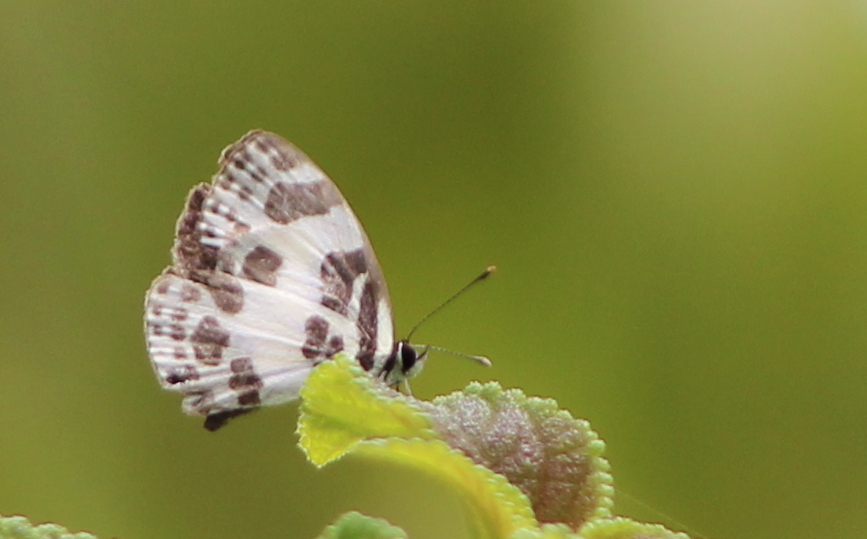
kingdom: Animalia
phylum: Arthropoda
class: Insecta
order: Lepidoptera
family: Lycaenidae
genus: Discolampa
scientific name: Discolampa ethion
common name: Banded blue pierrot
